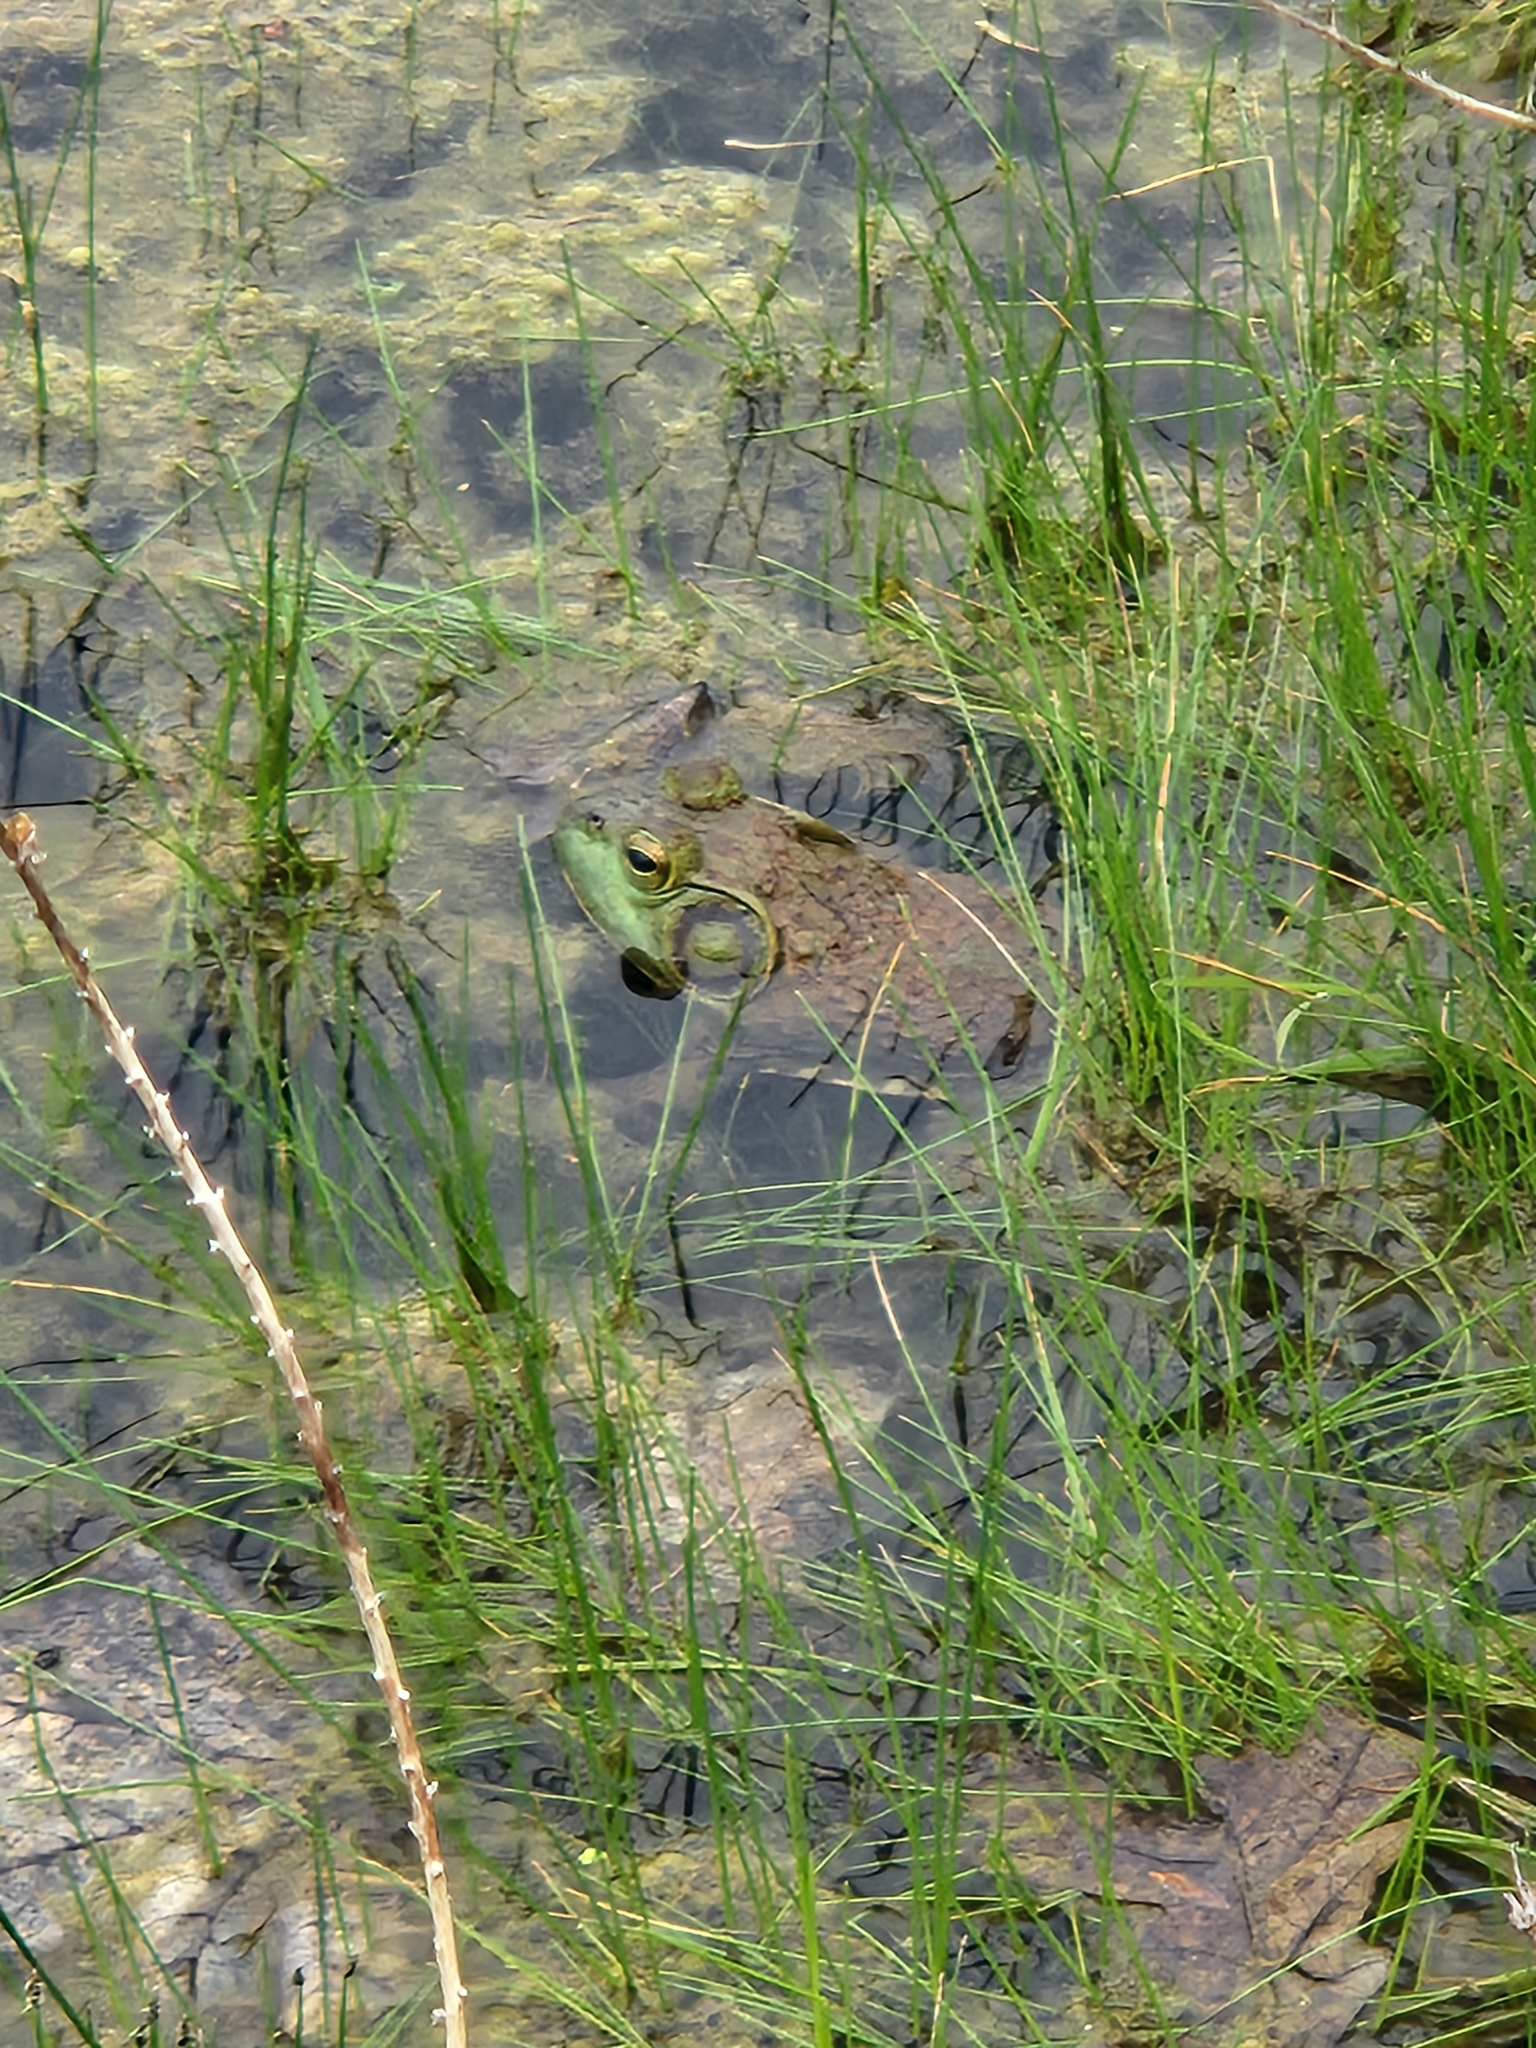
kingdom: Animalia
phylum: Chordata
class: Amphibia
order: Anura
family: Ranidae
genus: Lithobates
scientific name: Lithobates catesbeianus
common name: American bullfrog
